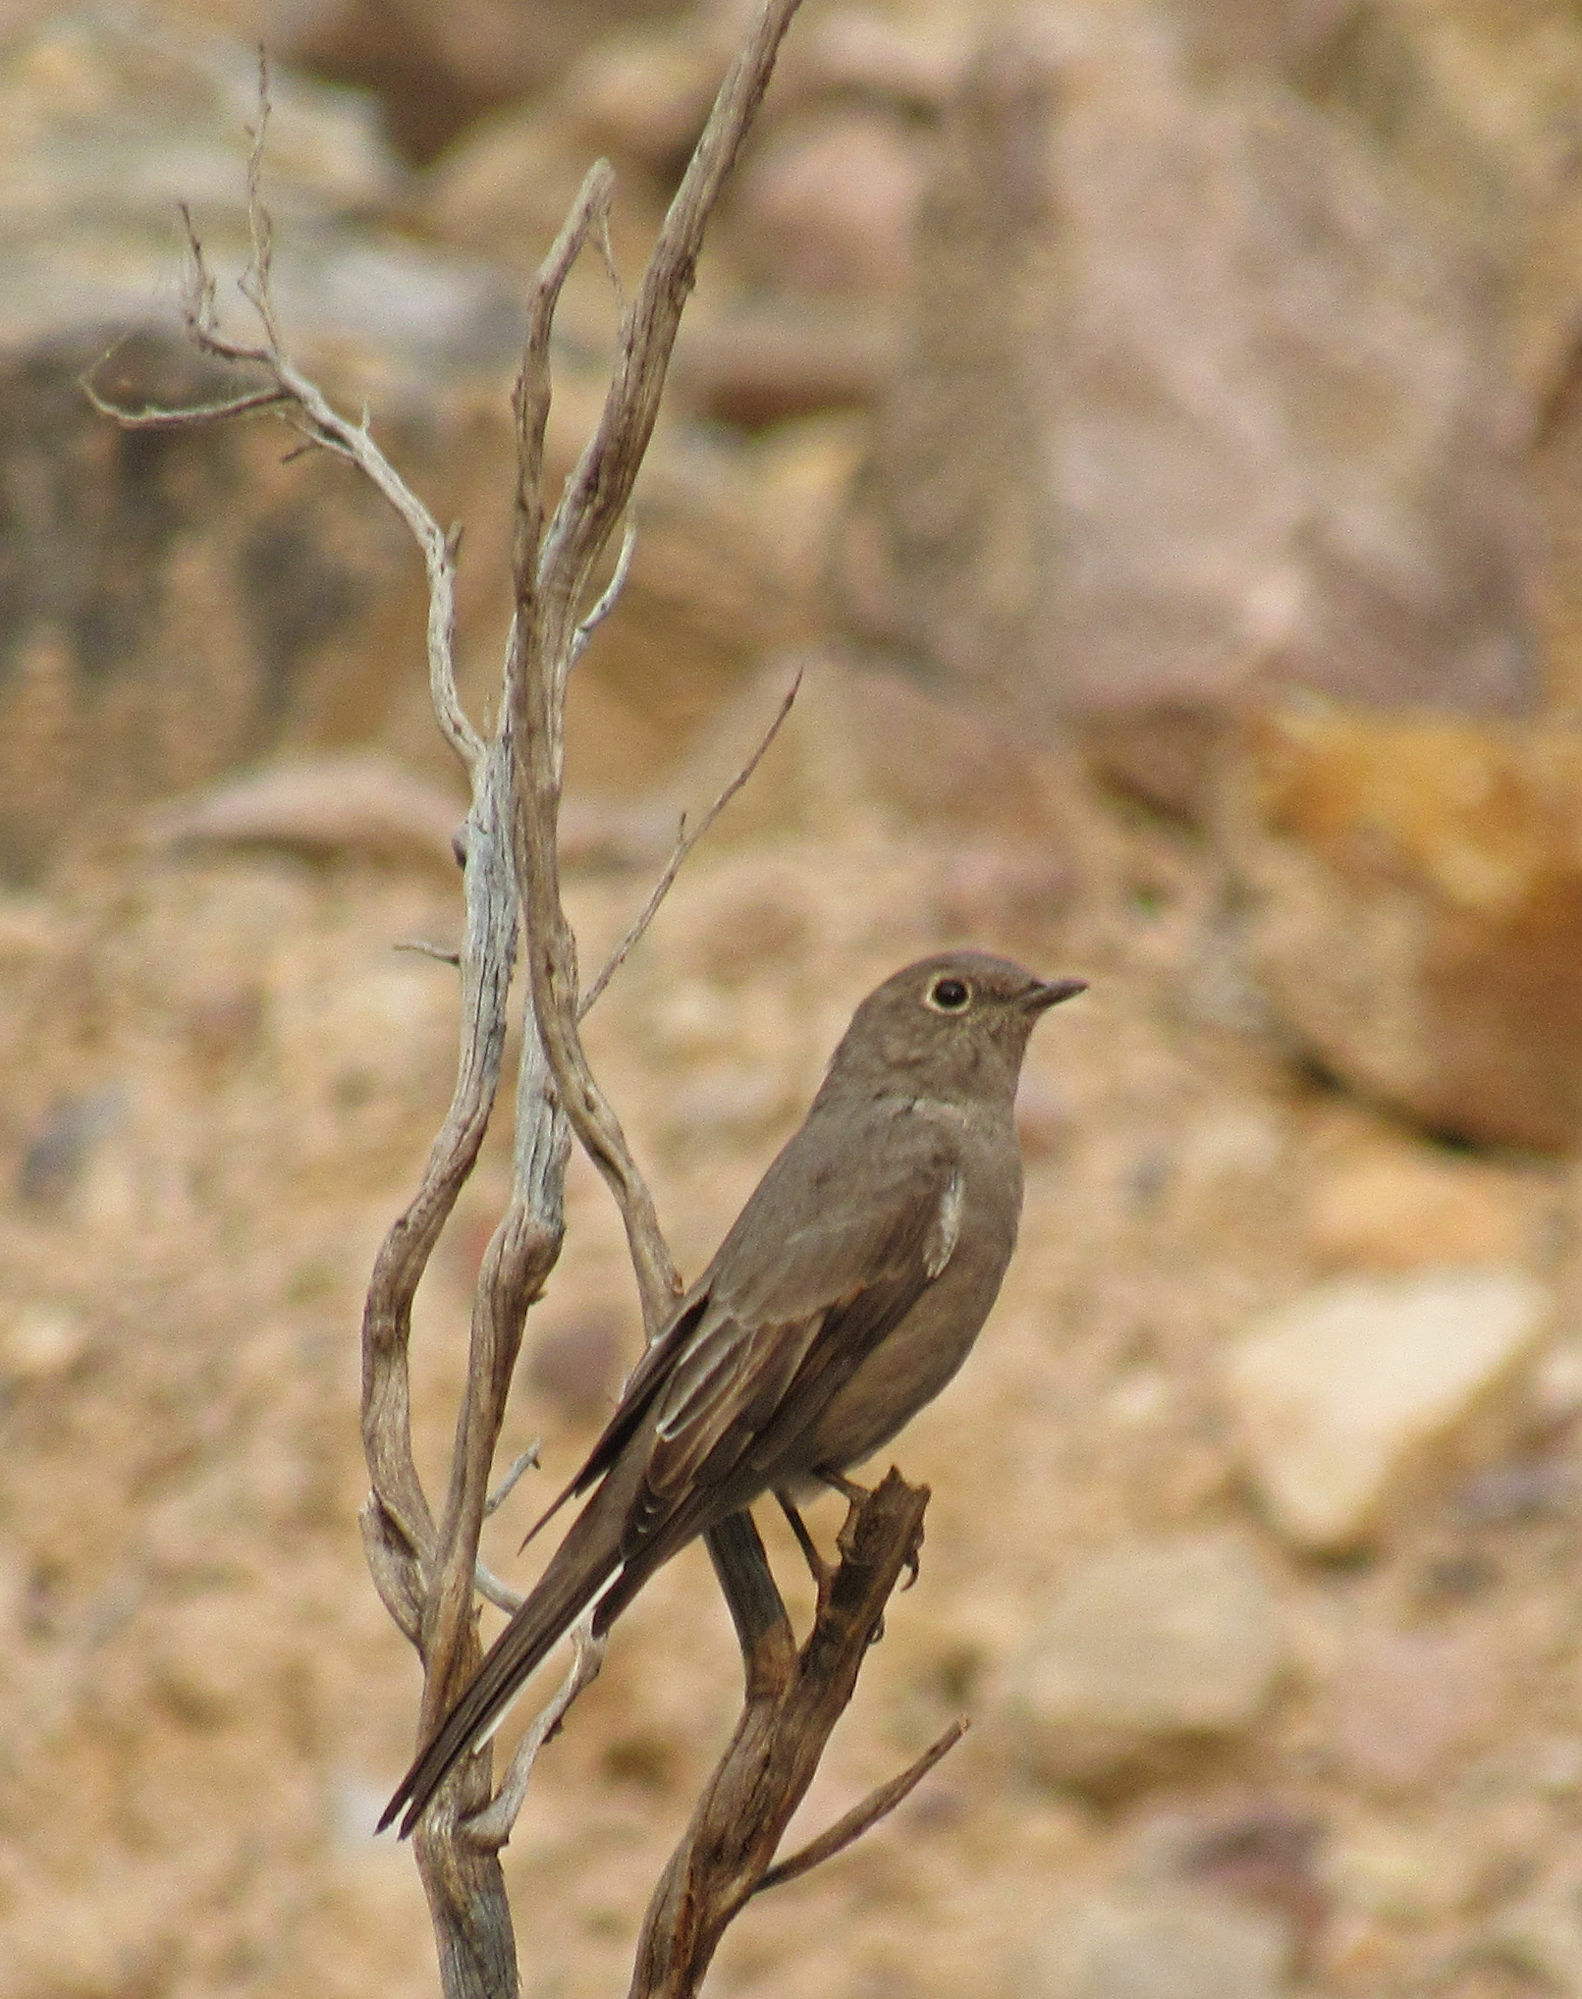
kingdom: Animalia
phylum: Chordata
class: Aves
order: Passeriformes
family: Turdidae
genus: Myadestes
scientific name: Myadestes townsendi
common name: Townsend's solitaire
